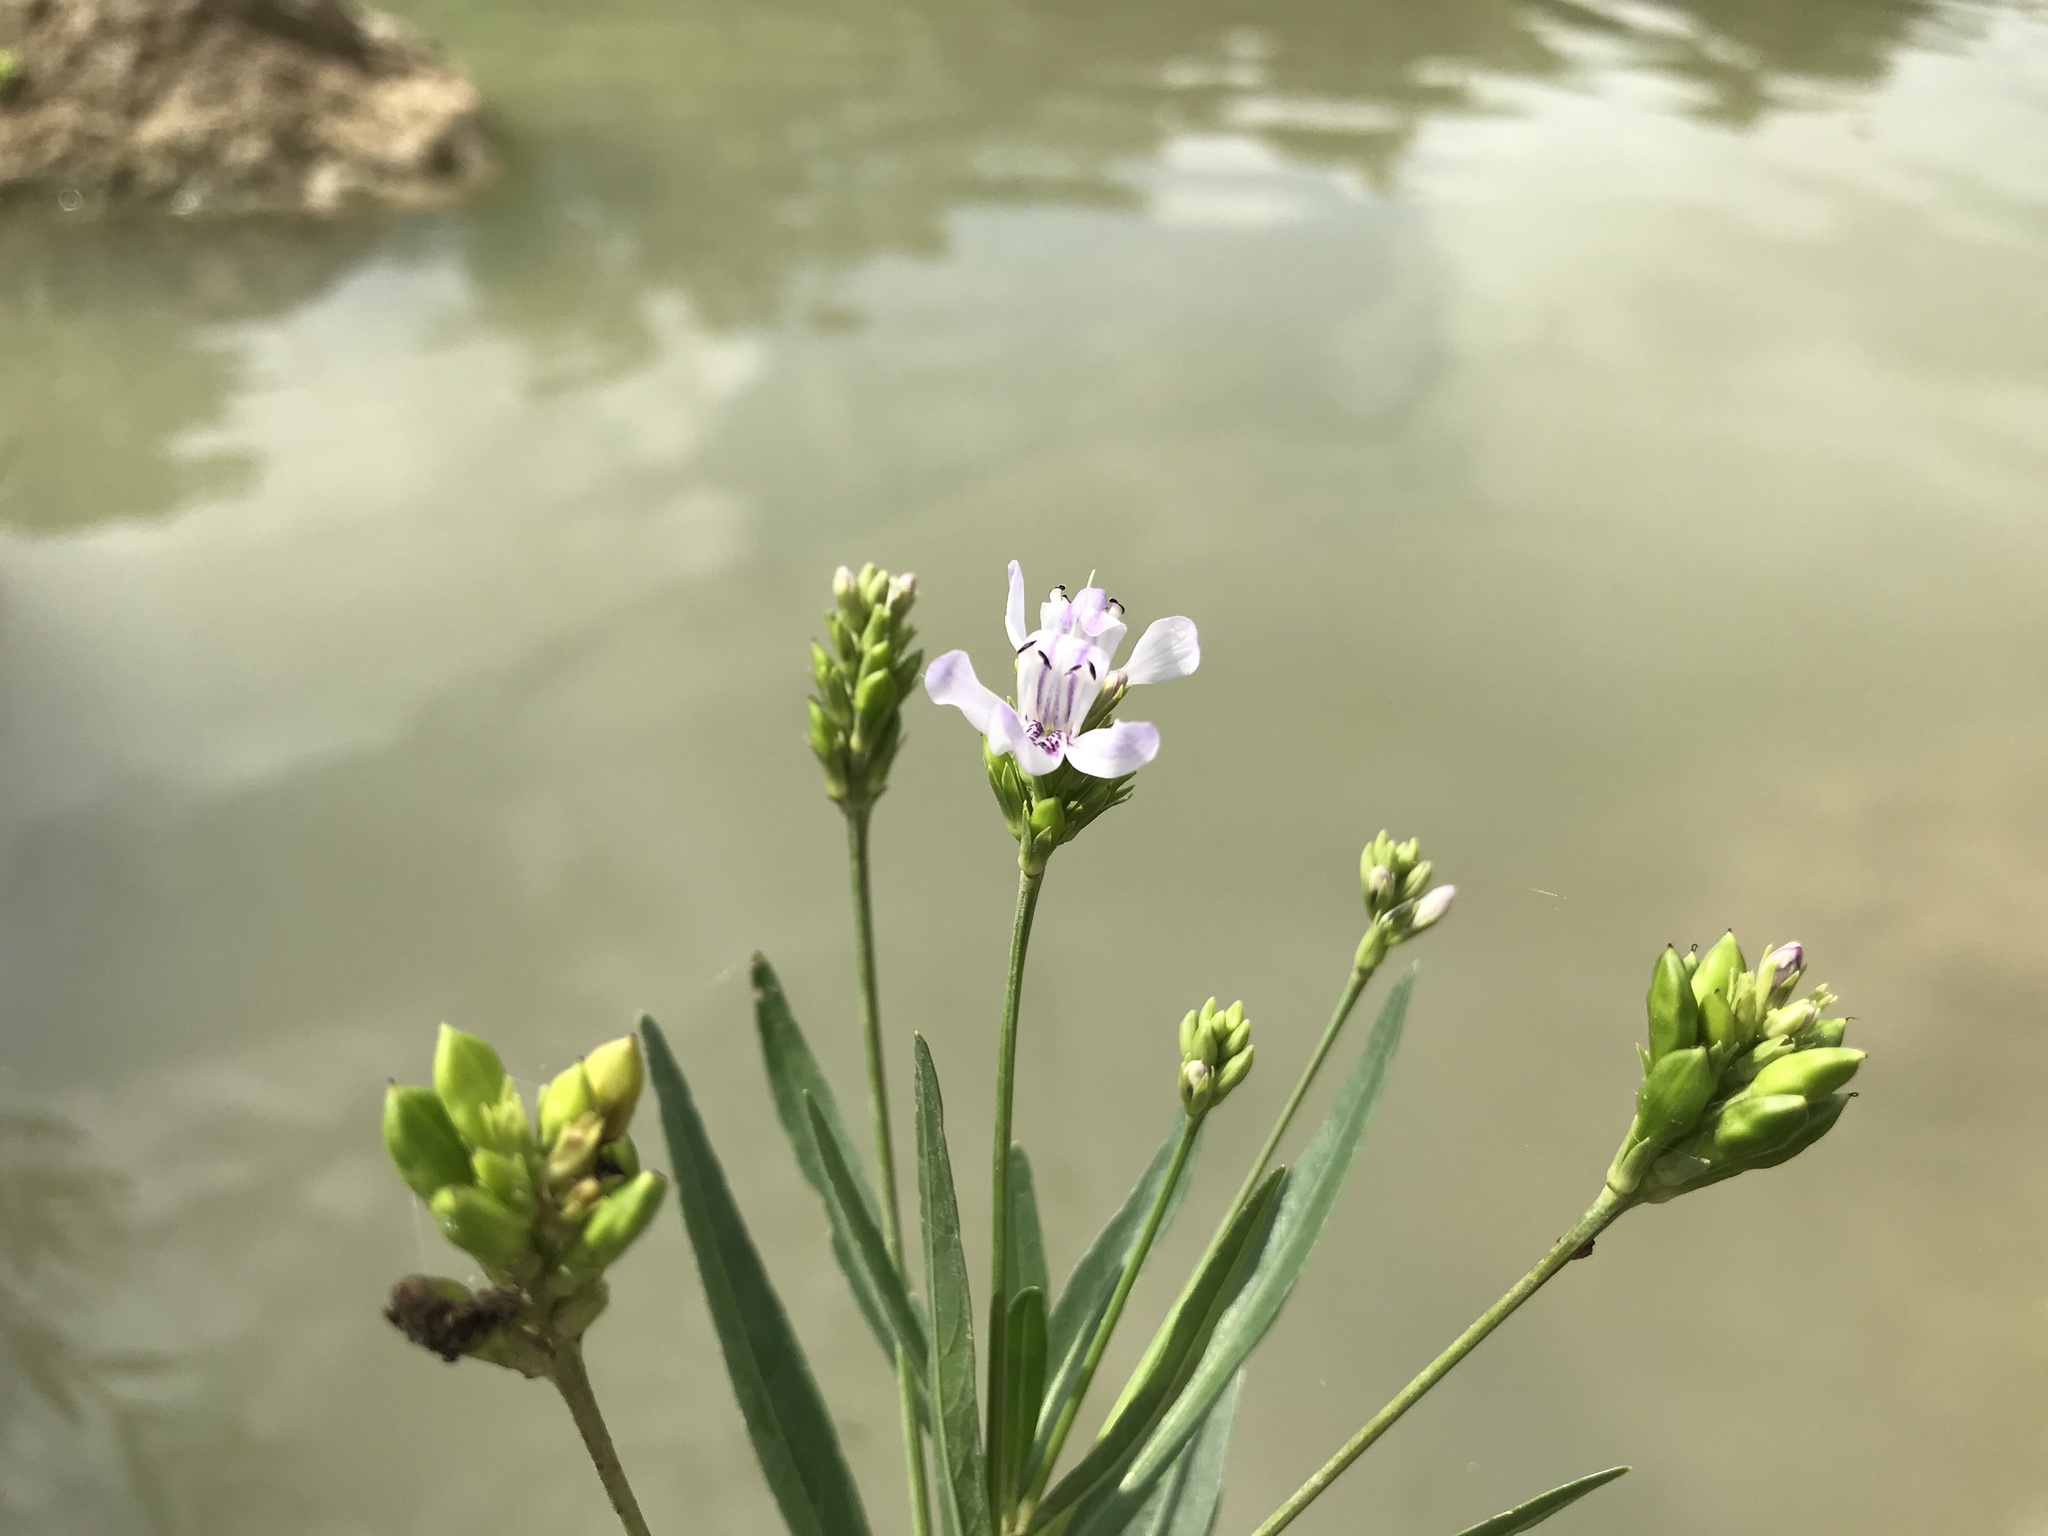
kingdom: Plantae
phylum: Tracheophyta
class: Magnoliopsida
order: Lamiales
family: Acanthaceae
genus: Dianthera
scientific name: Dianthera americana
